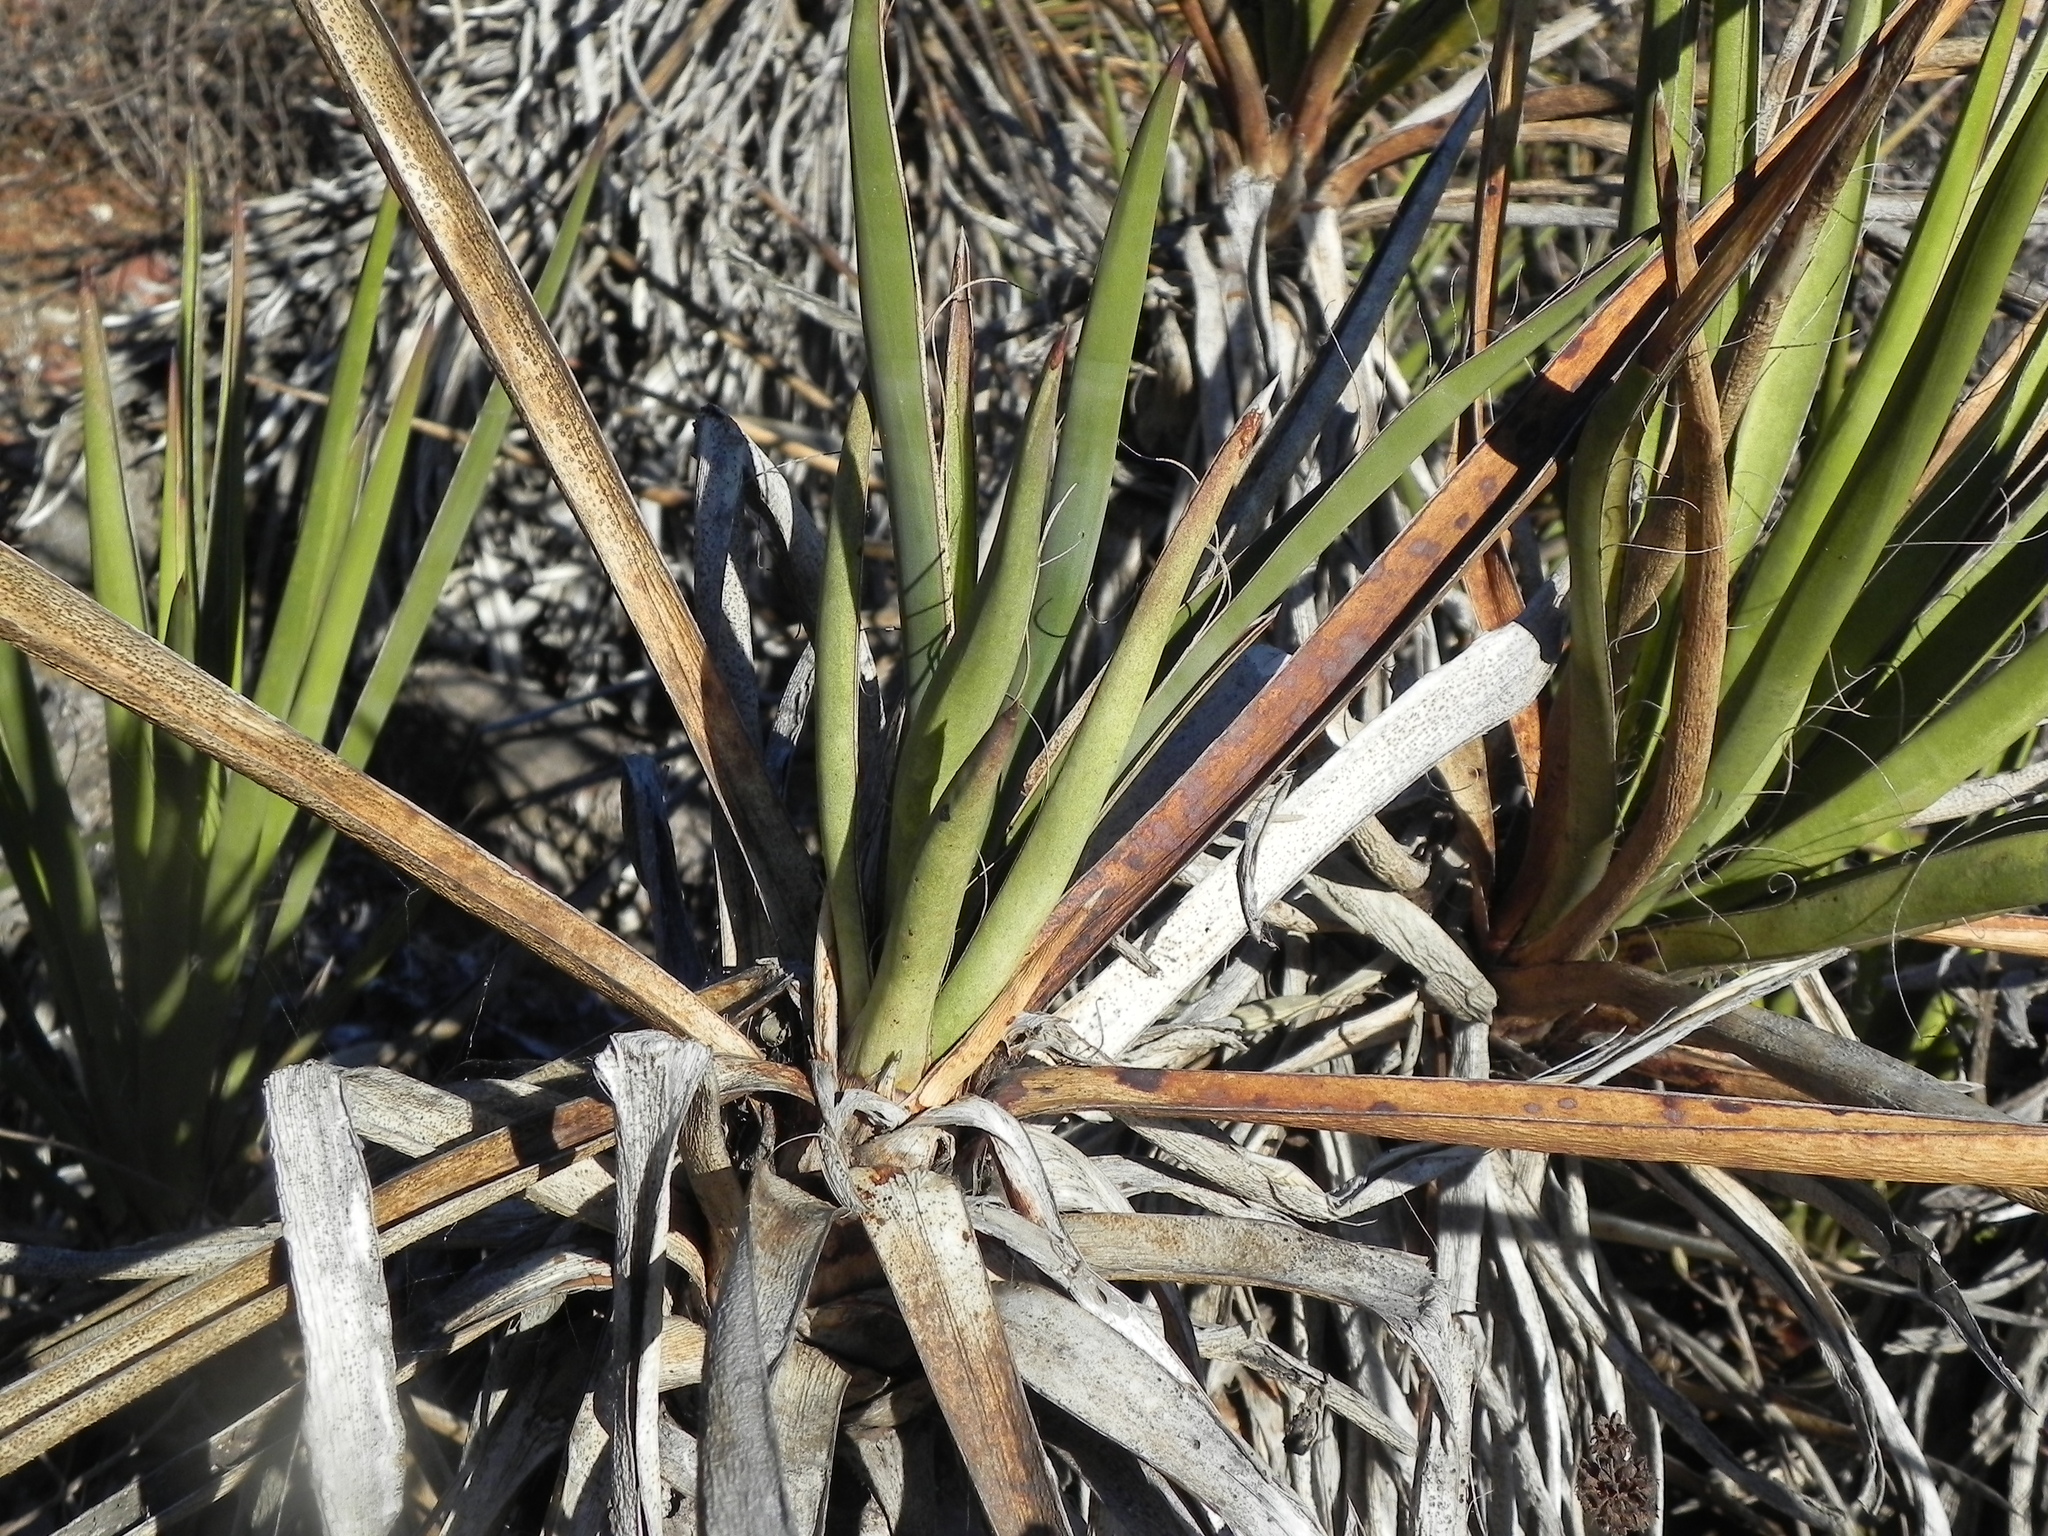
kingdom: Plantae
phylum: Tracheophyta
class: Liliopsida
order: Asparagales
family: Asparagaceae
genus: Yucca
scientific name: Yucca schidigera
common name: Mojave yucca
